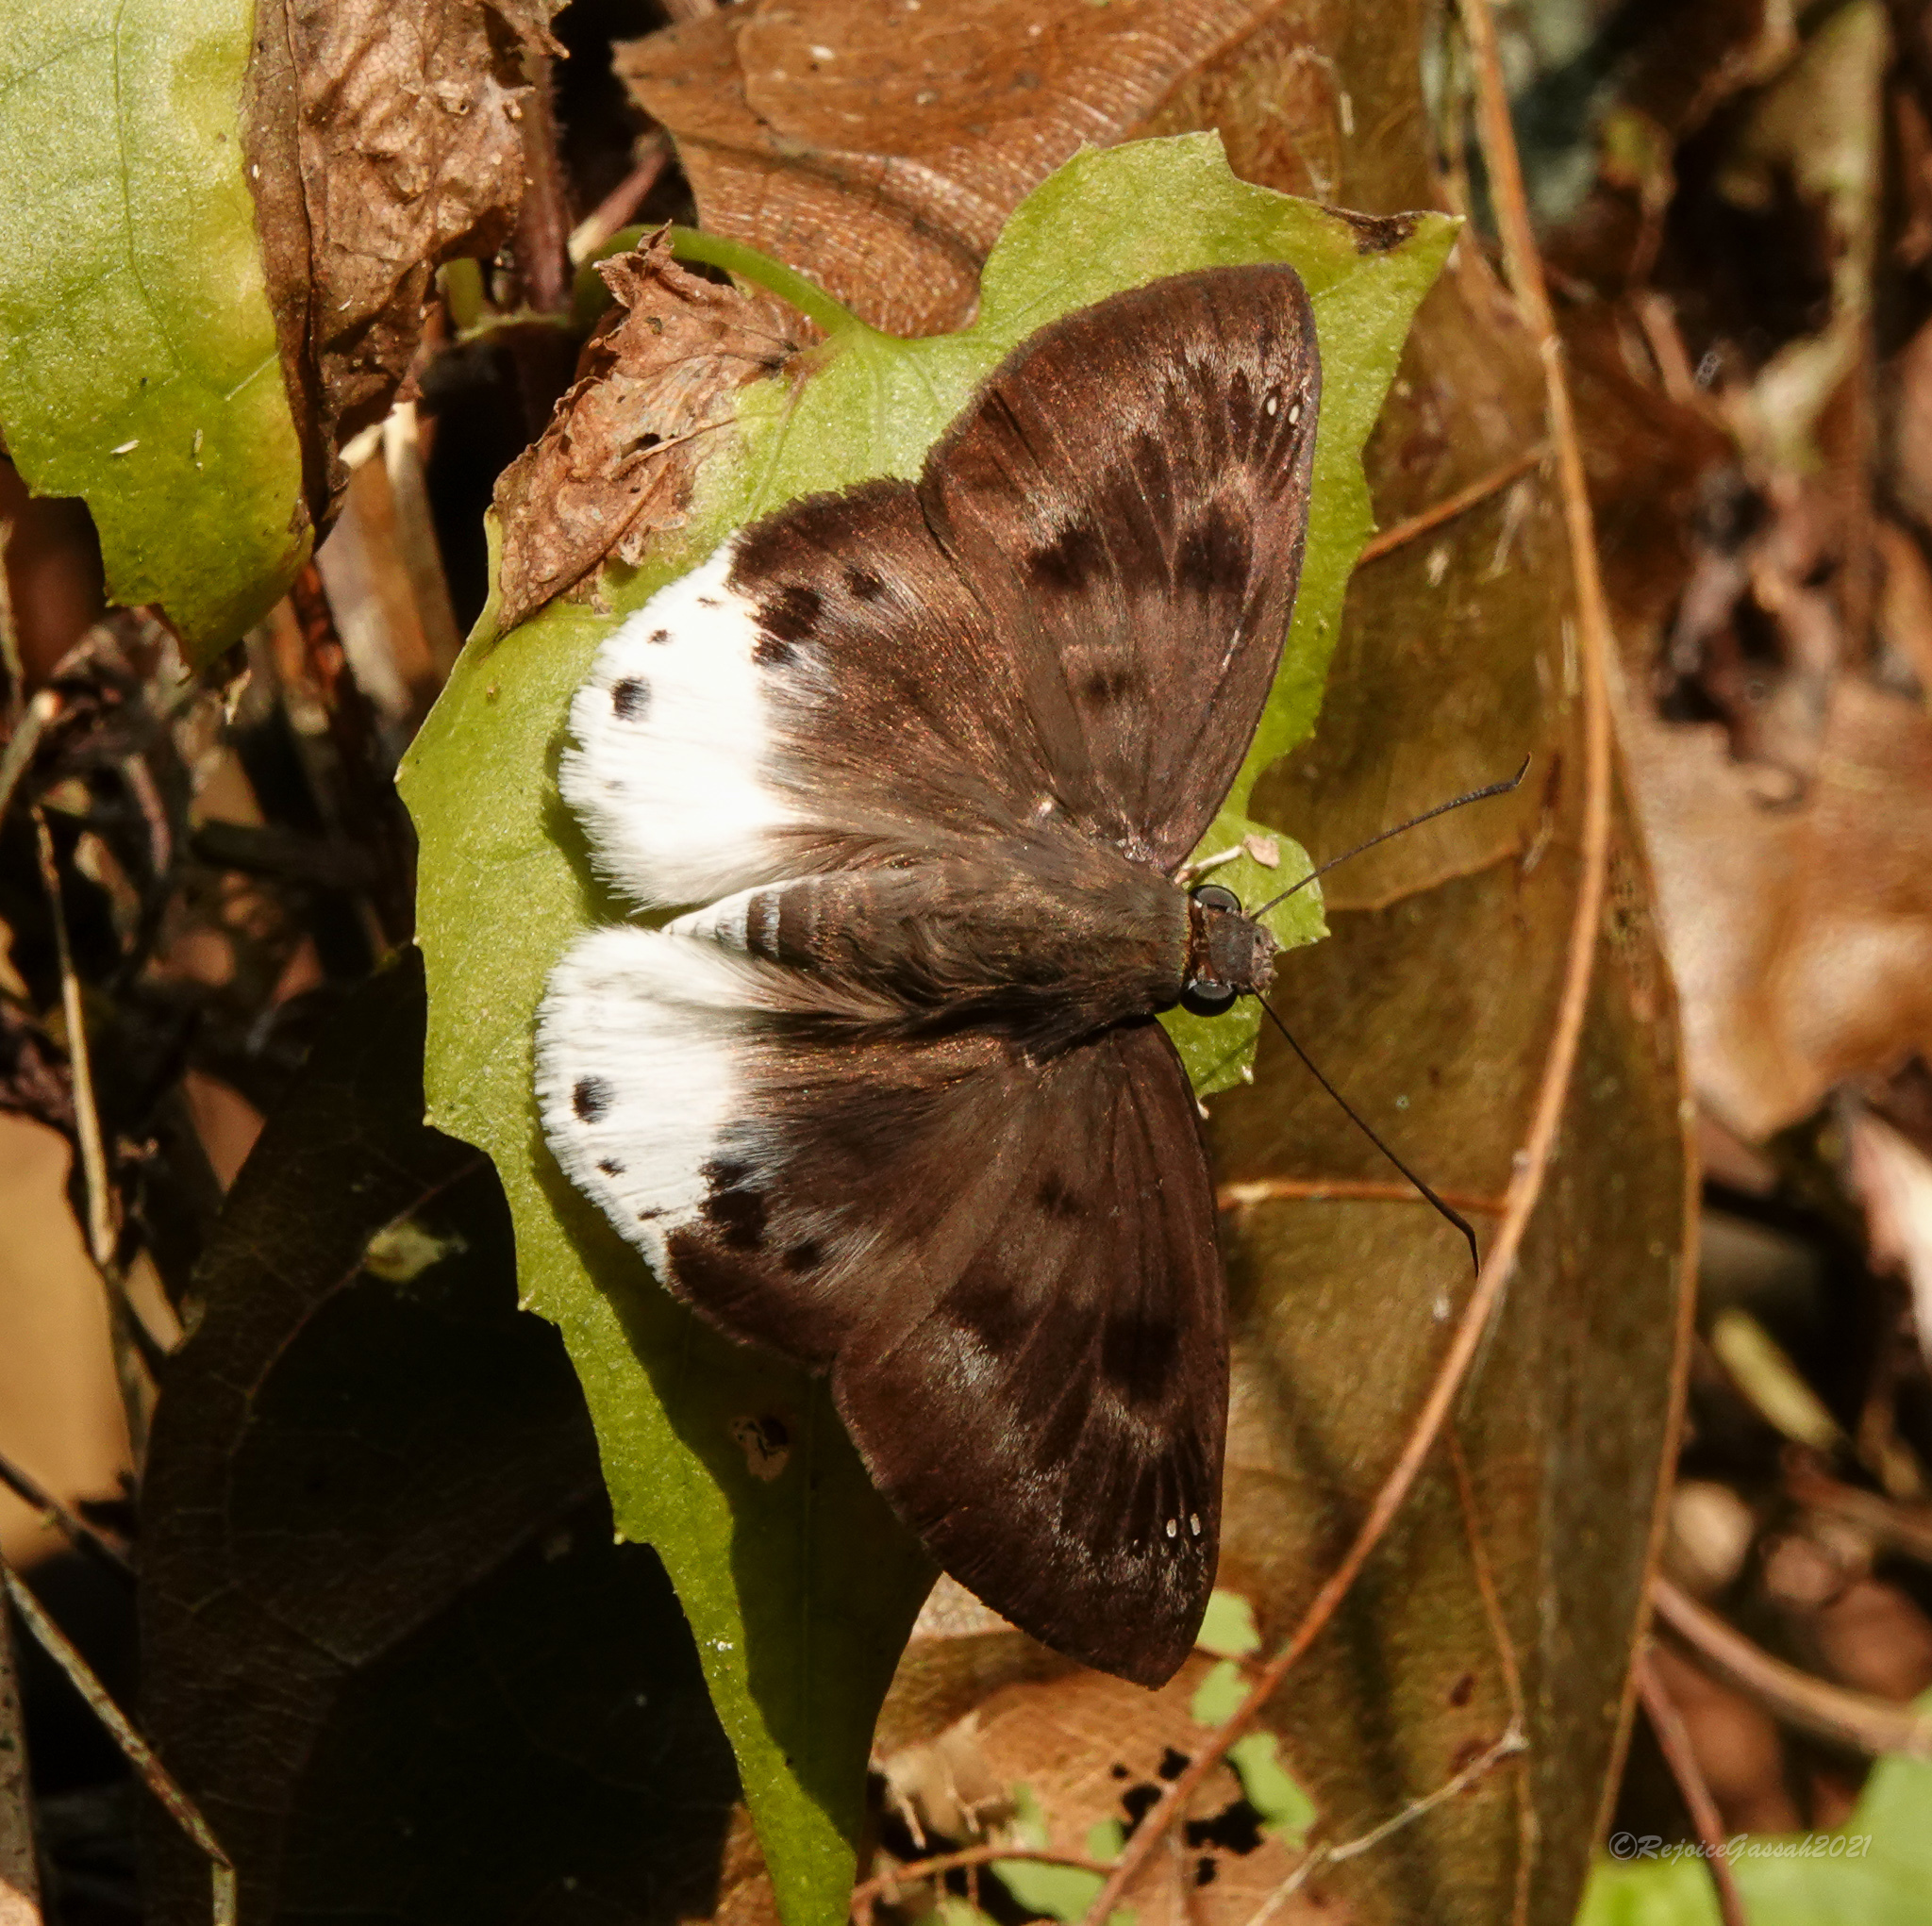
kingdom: Animalia
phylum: Arthropoda
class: Insecta
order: Lepidoptera
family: Hesperiidae
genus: Tagiades
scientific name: Tagiades gana
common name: Suffused snow flat
